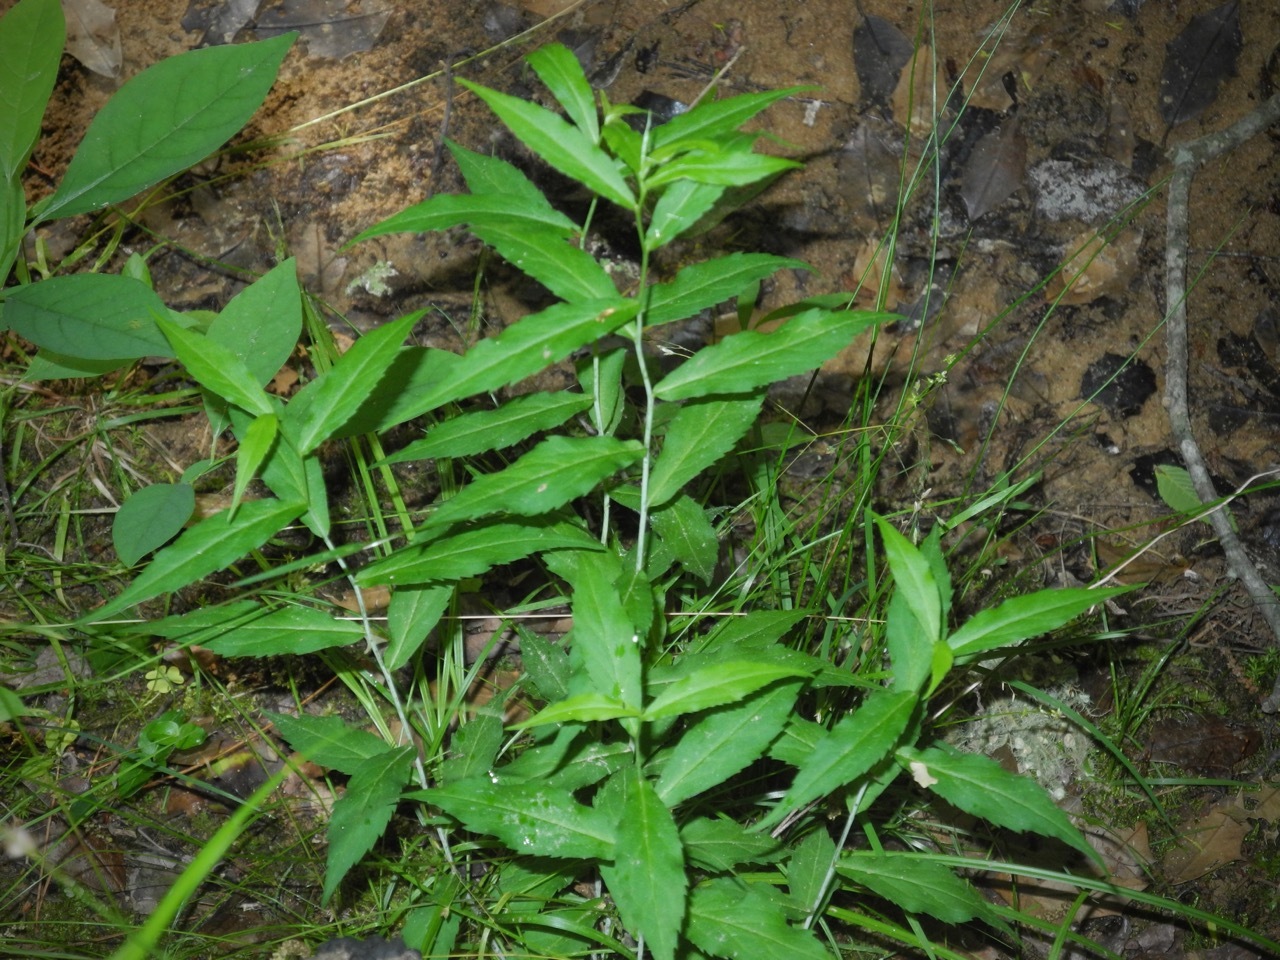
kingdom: Plantae
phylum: Tracheophyta
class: Magnoliopsida
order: Asterales
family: Asteraceae
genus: Solidago
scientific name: Solidago caesia
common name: Woodland goldenrod
